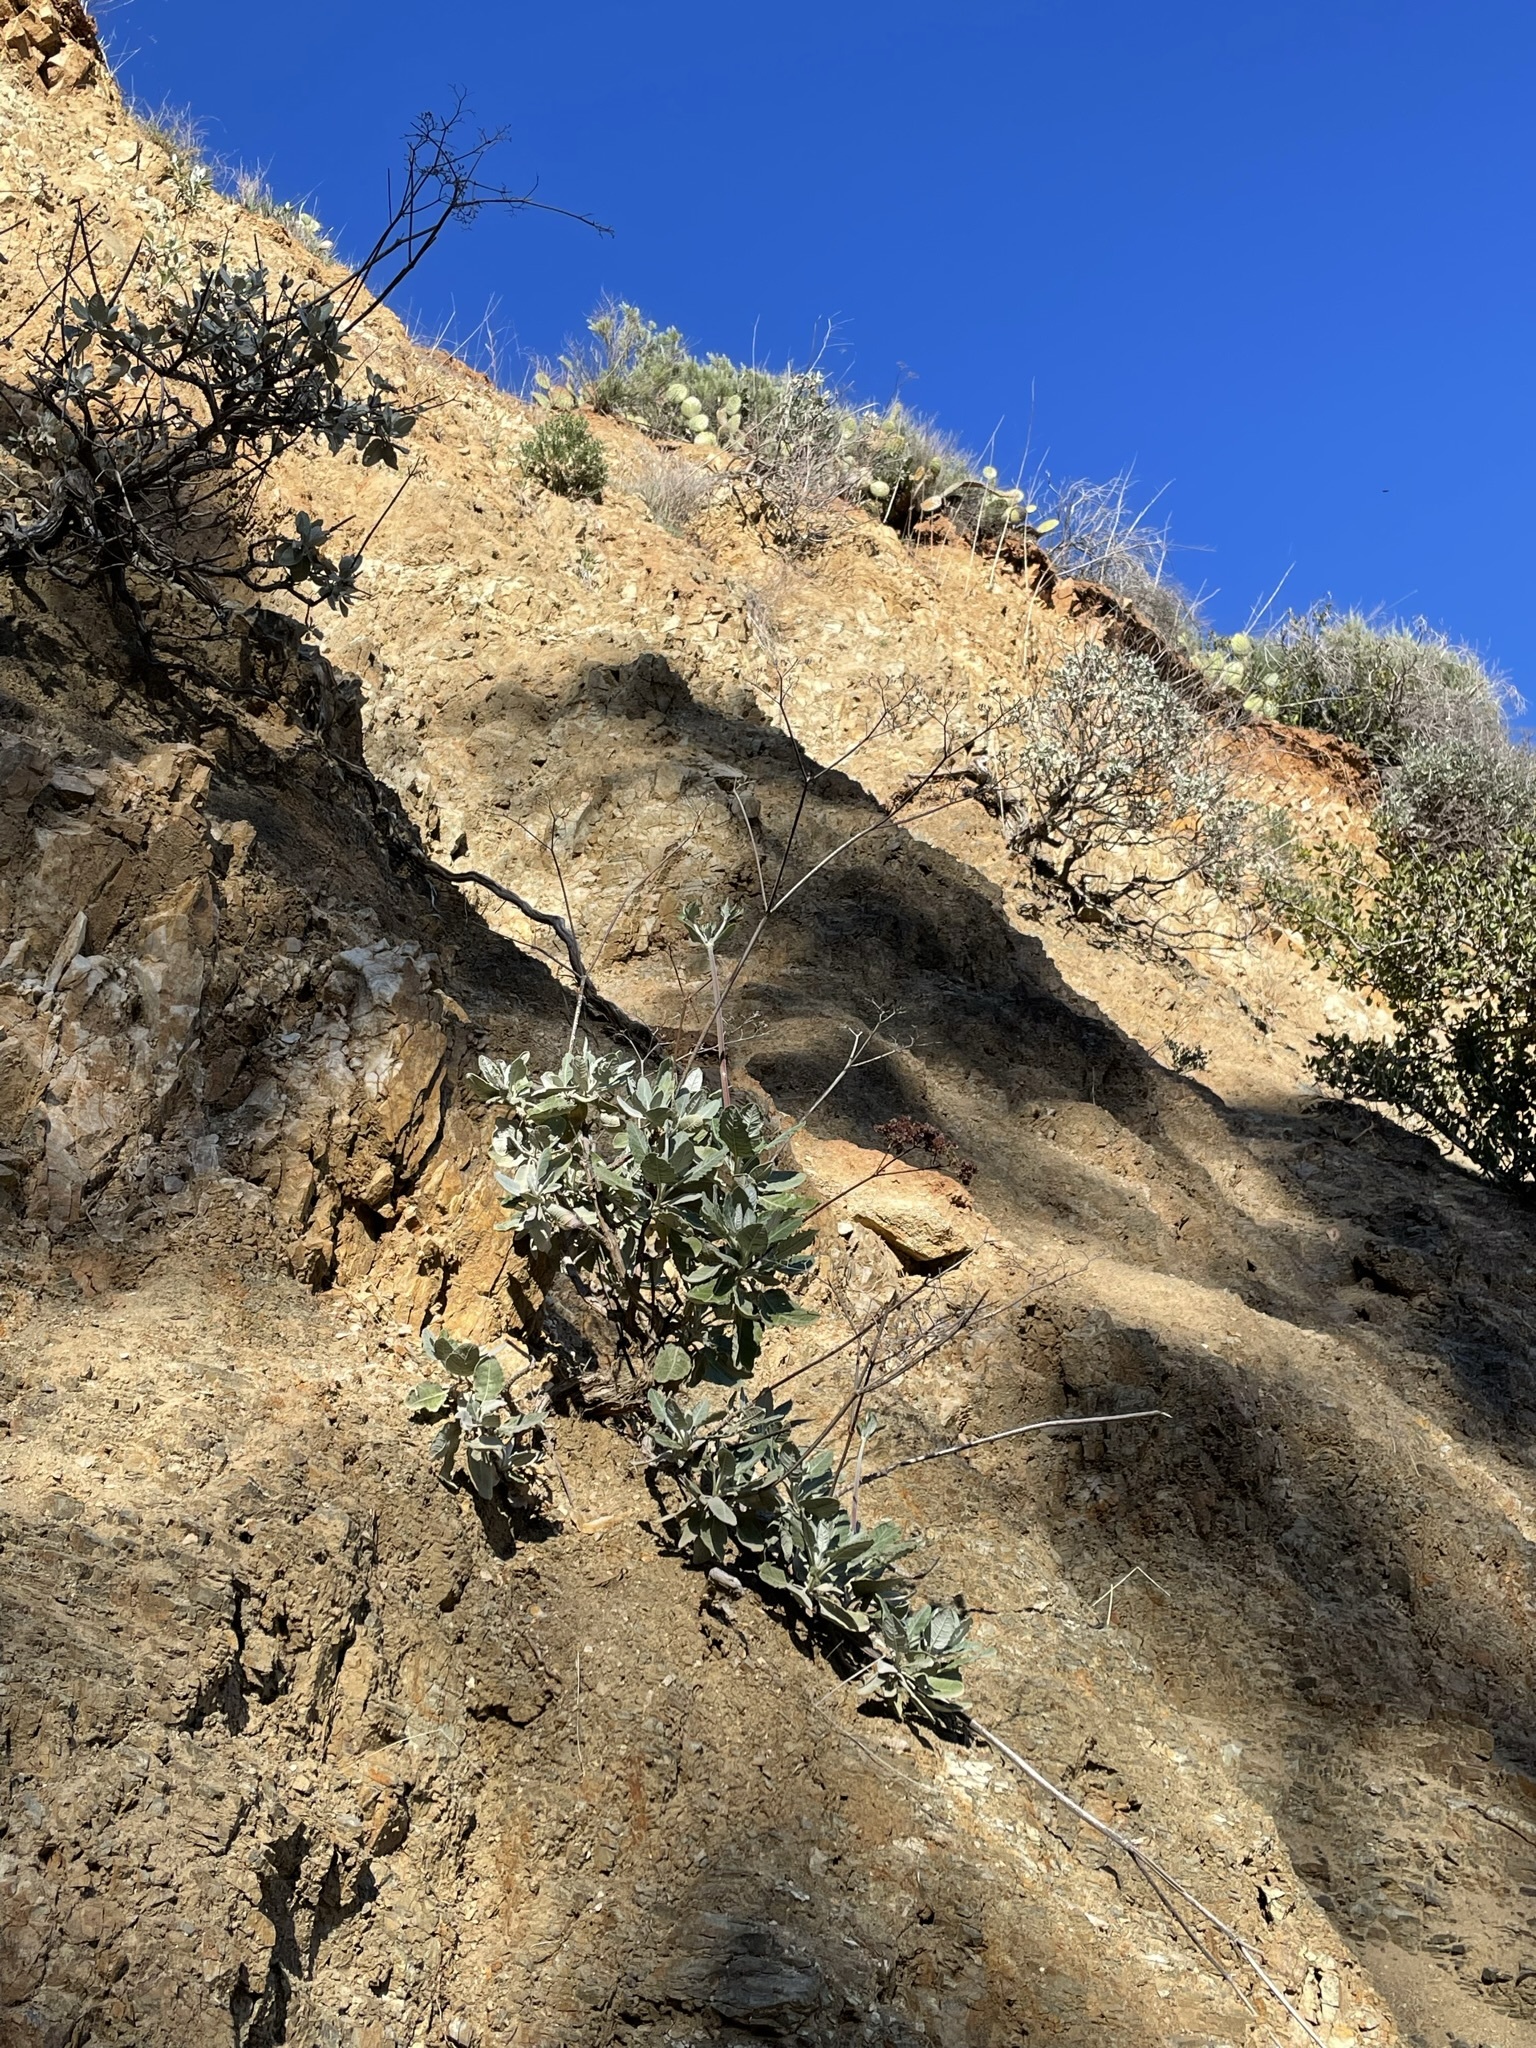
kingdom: Plantae
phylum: Tracheophyta
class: Magnoliopsida
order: Caryophyllales
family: Polygonaceae
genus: Eriogonum
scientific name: Eriogonum giganteum
